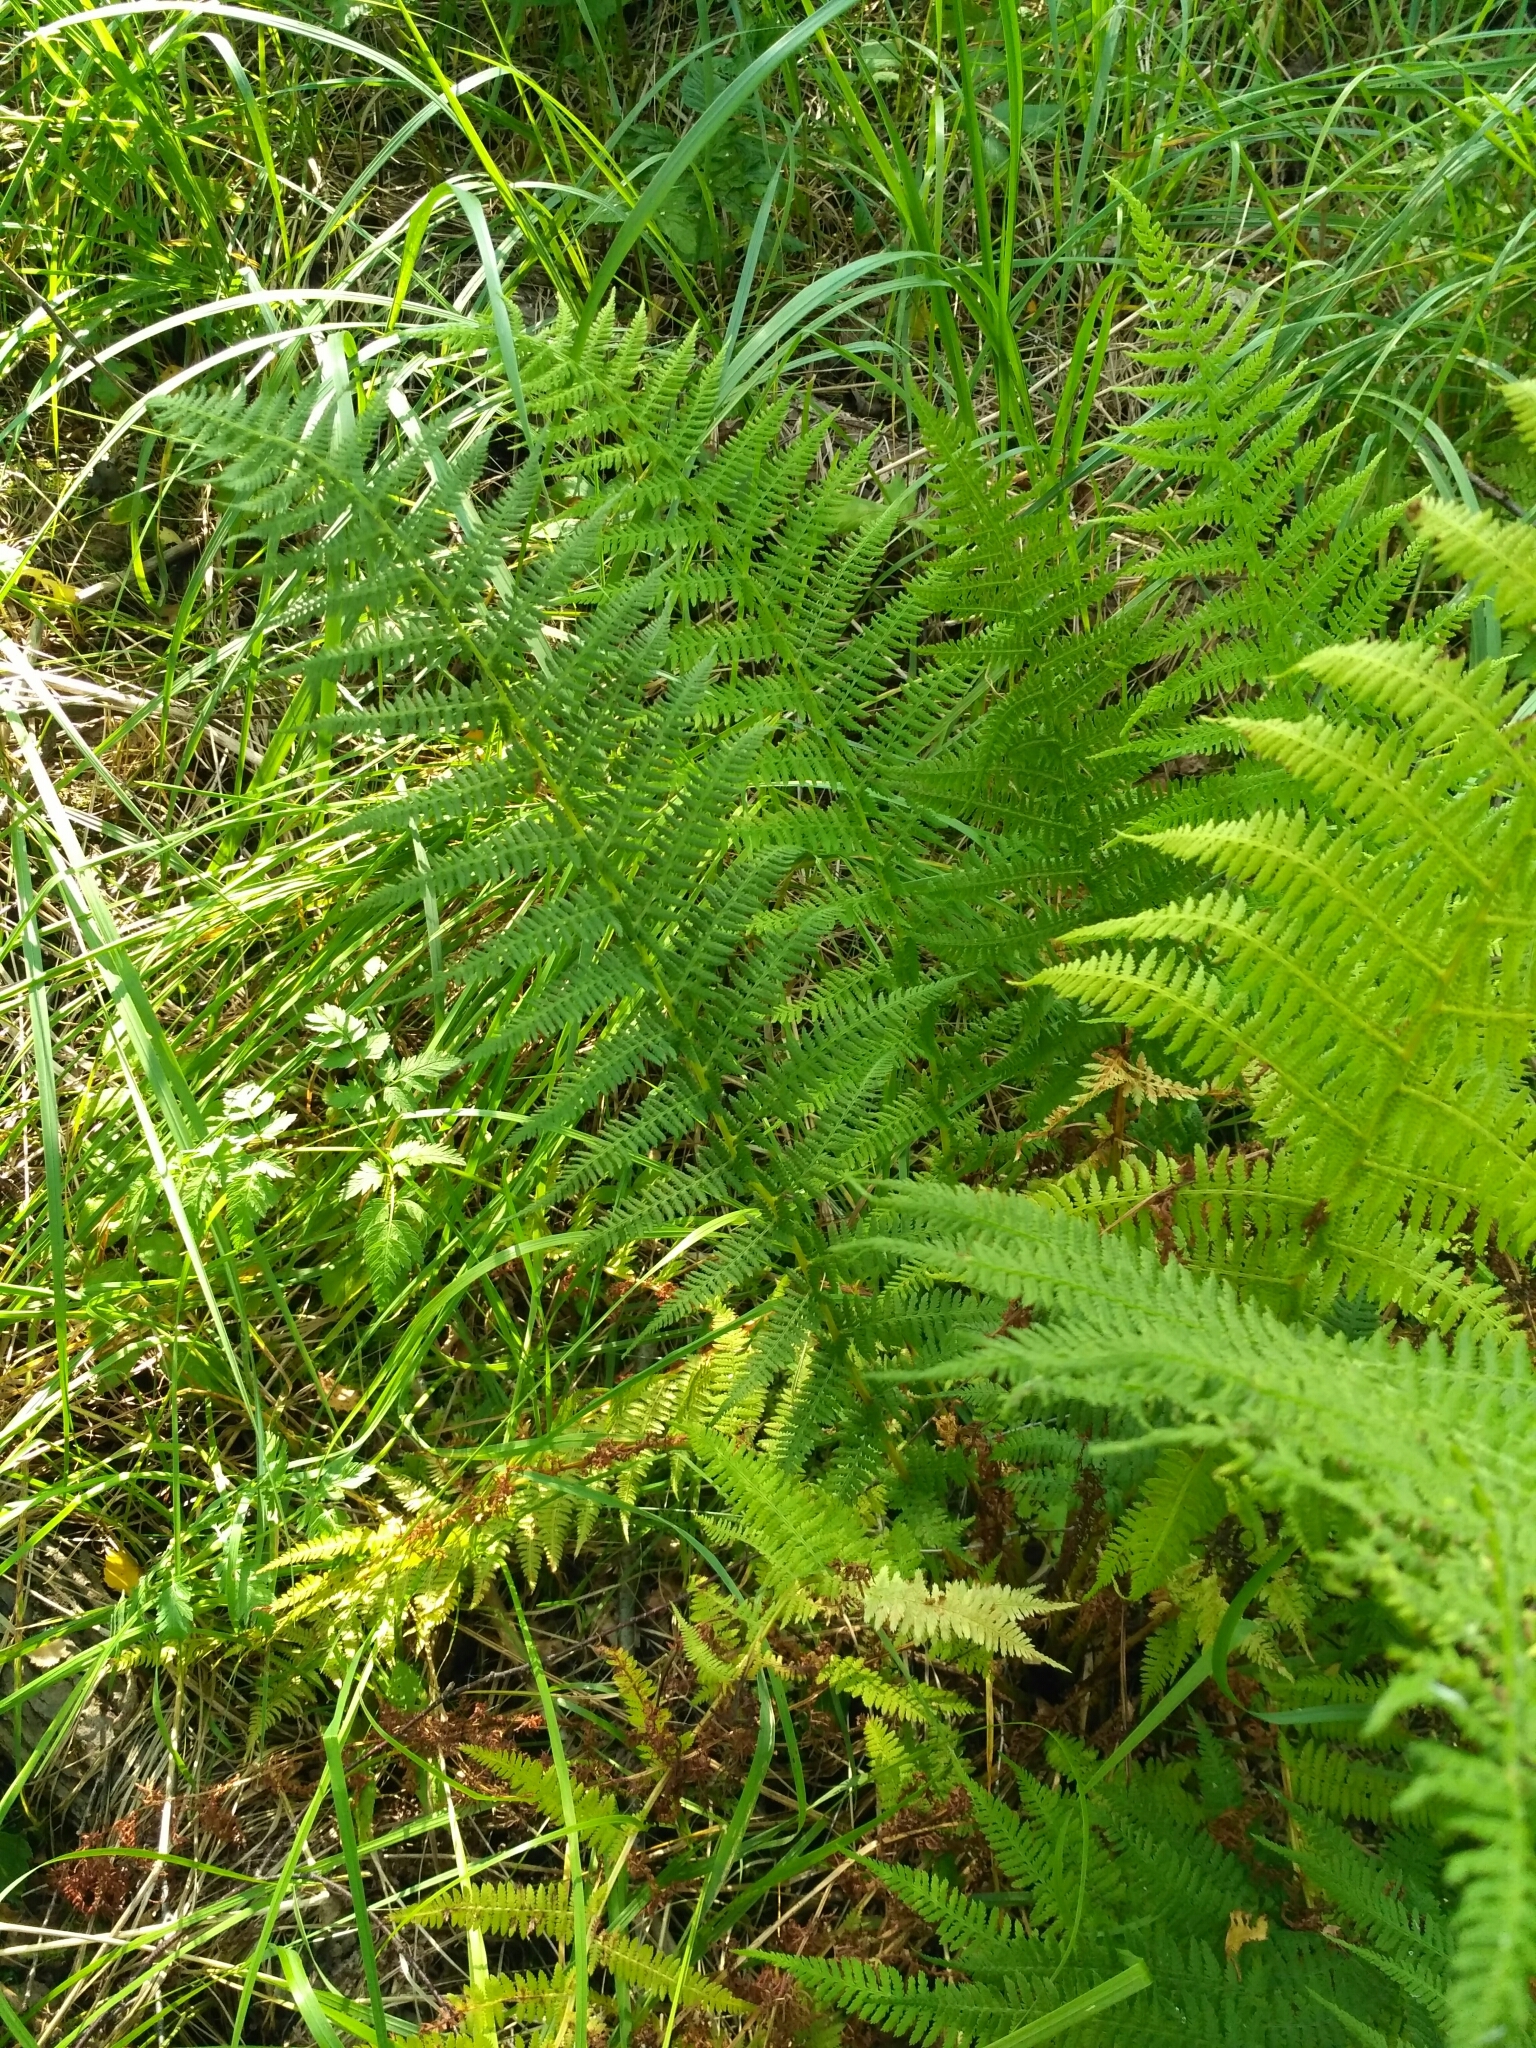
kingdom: Plantae
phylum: Tracheophyta
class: Polypodiopsida
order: Polypodiales
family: Athyriaceae
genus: Athyrium
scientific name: Athyrium filix-femina
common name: Lady fern
